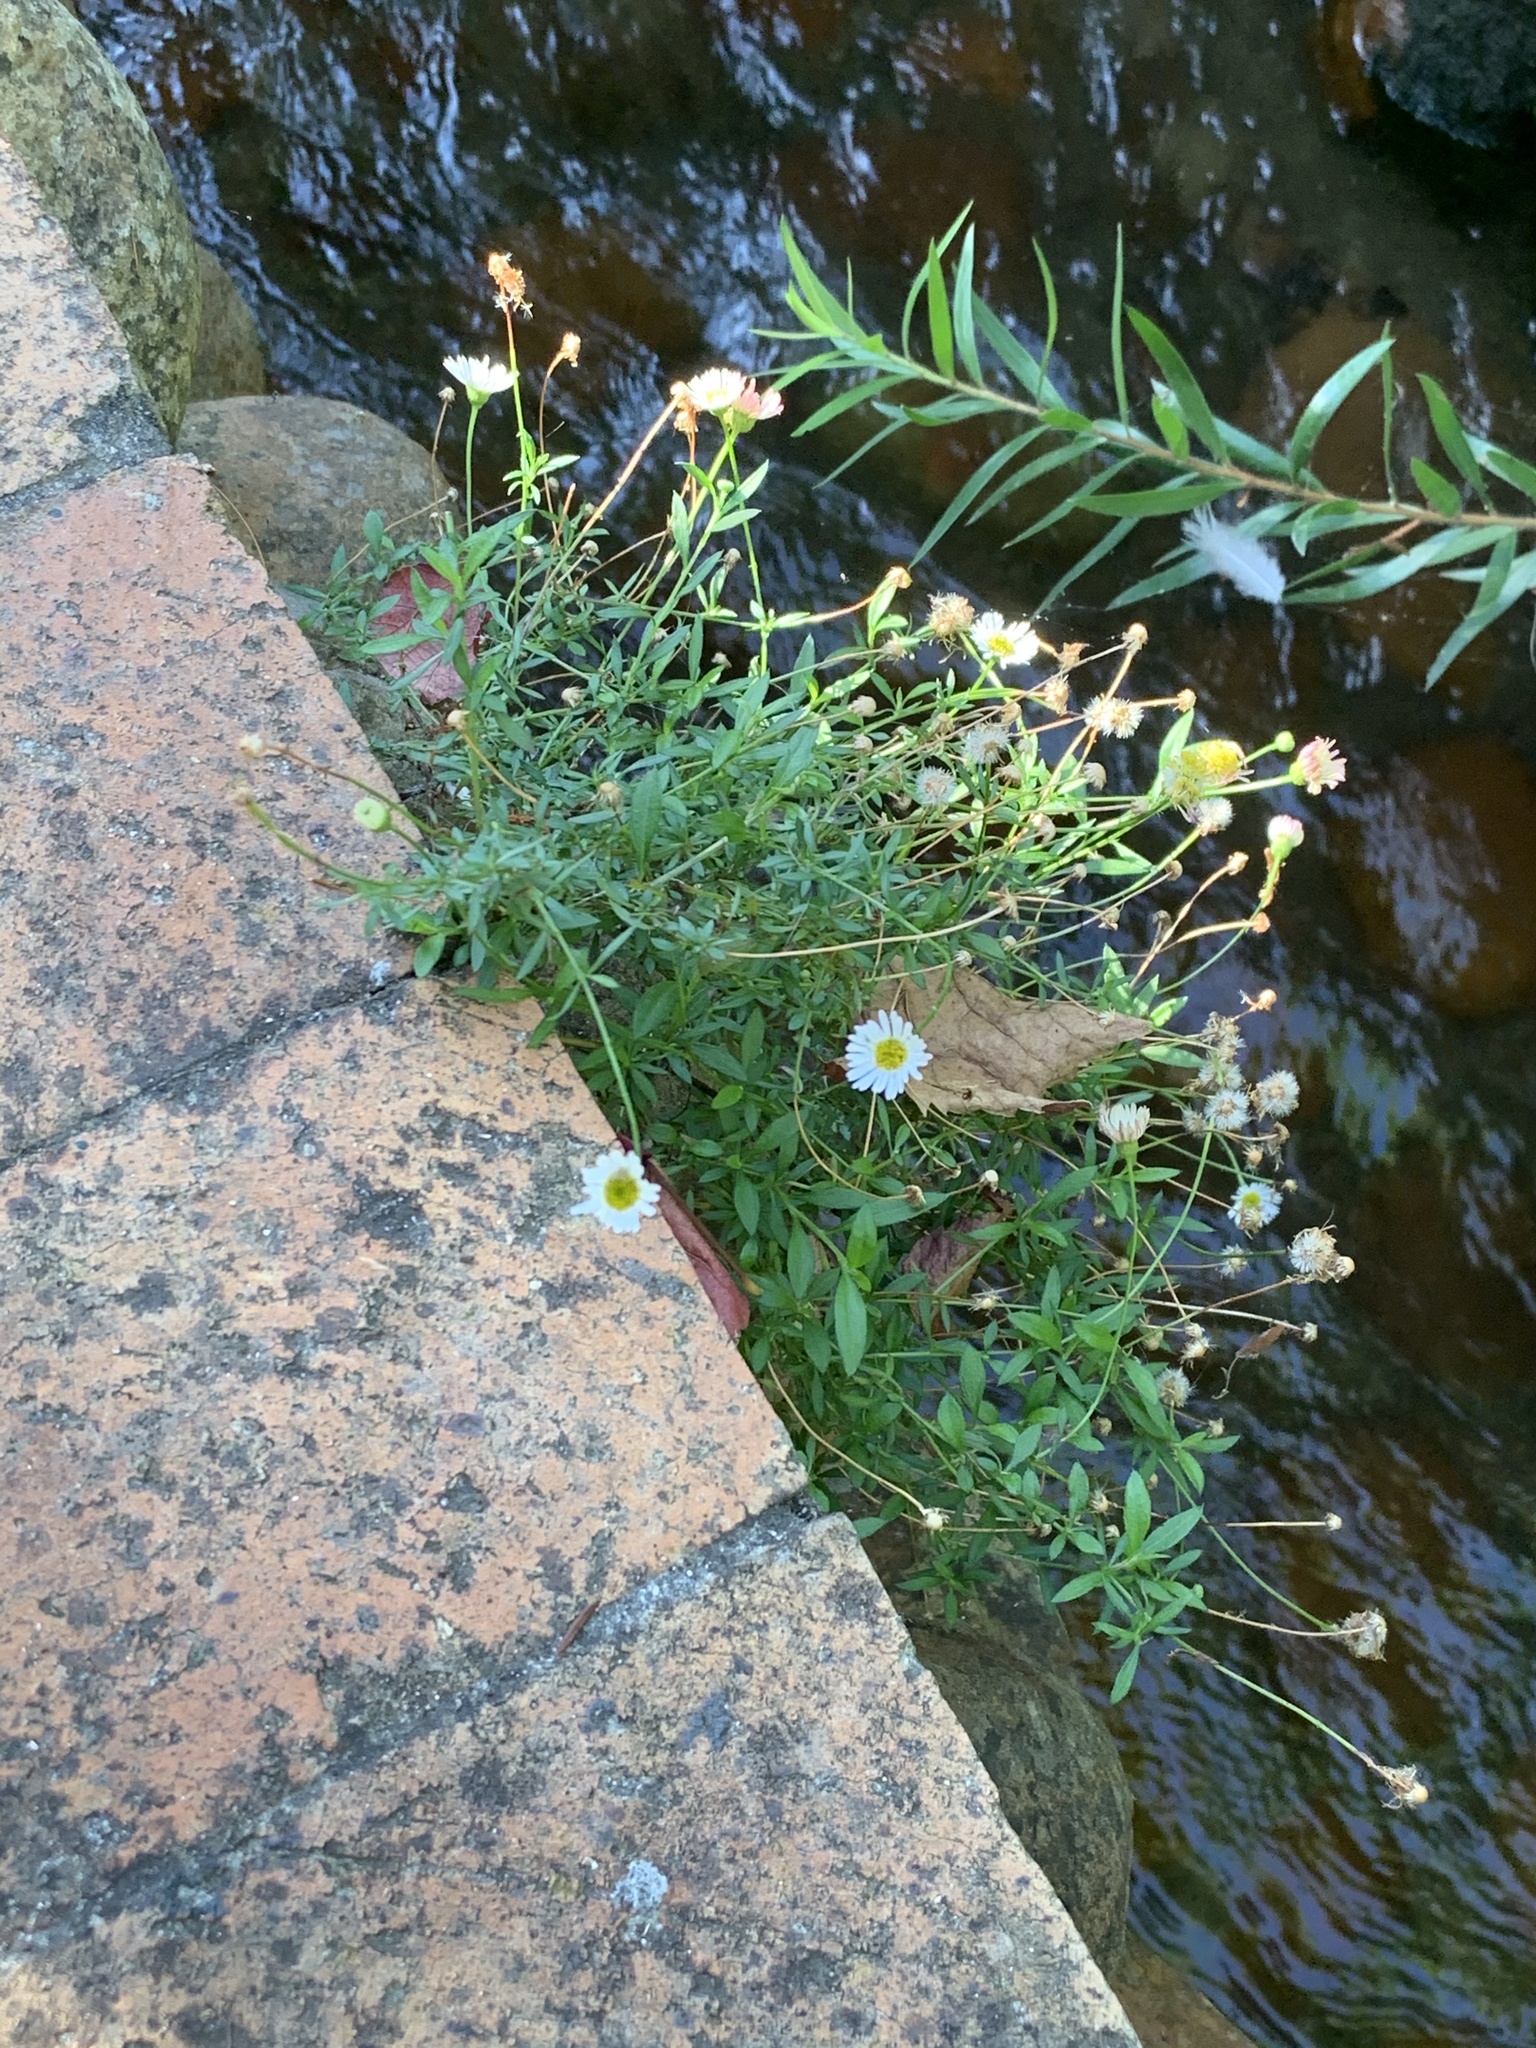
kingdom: Plantae
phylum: Tracheophyta
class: Magnoliopsida
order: Asterales
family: Asteraceae
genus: Erigeron
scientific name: Erigeron karvinskianus
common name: Mexican fleabane
